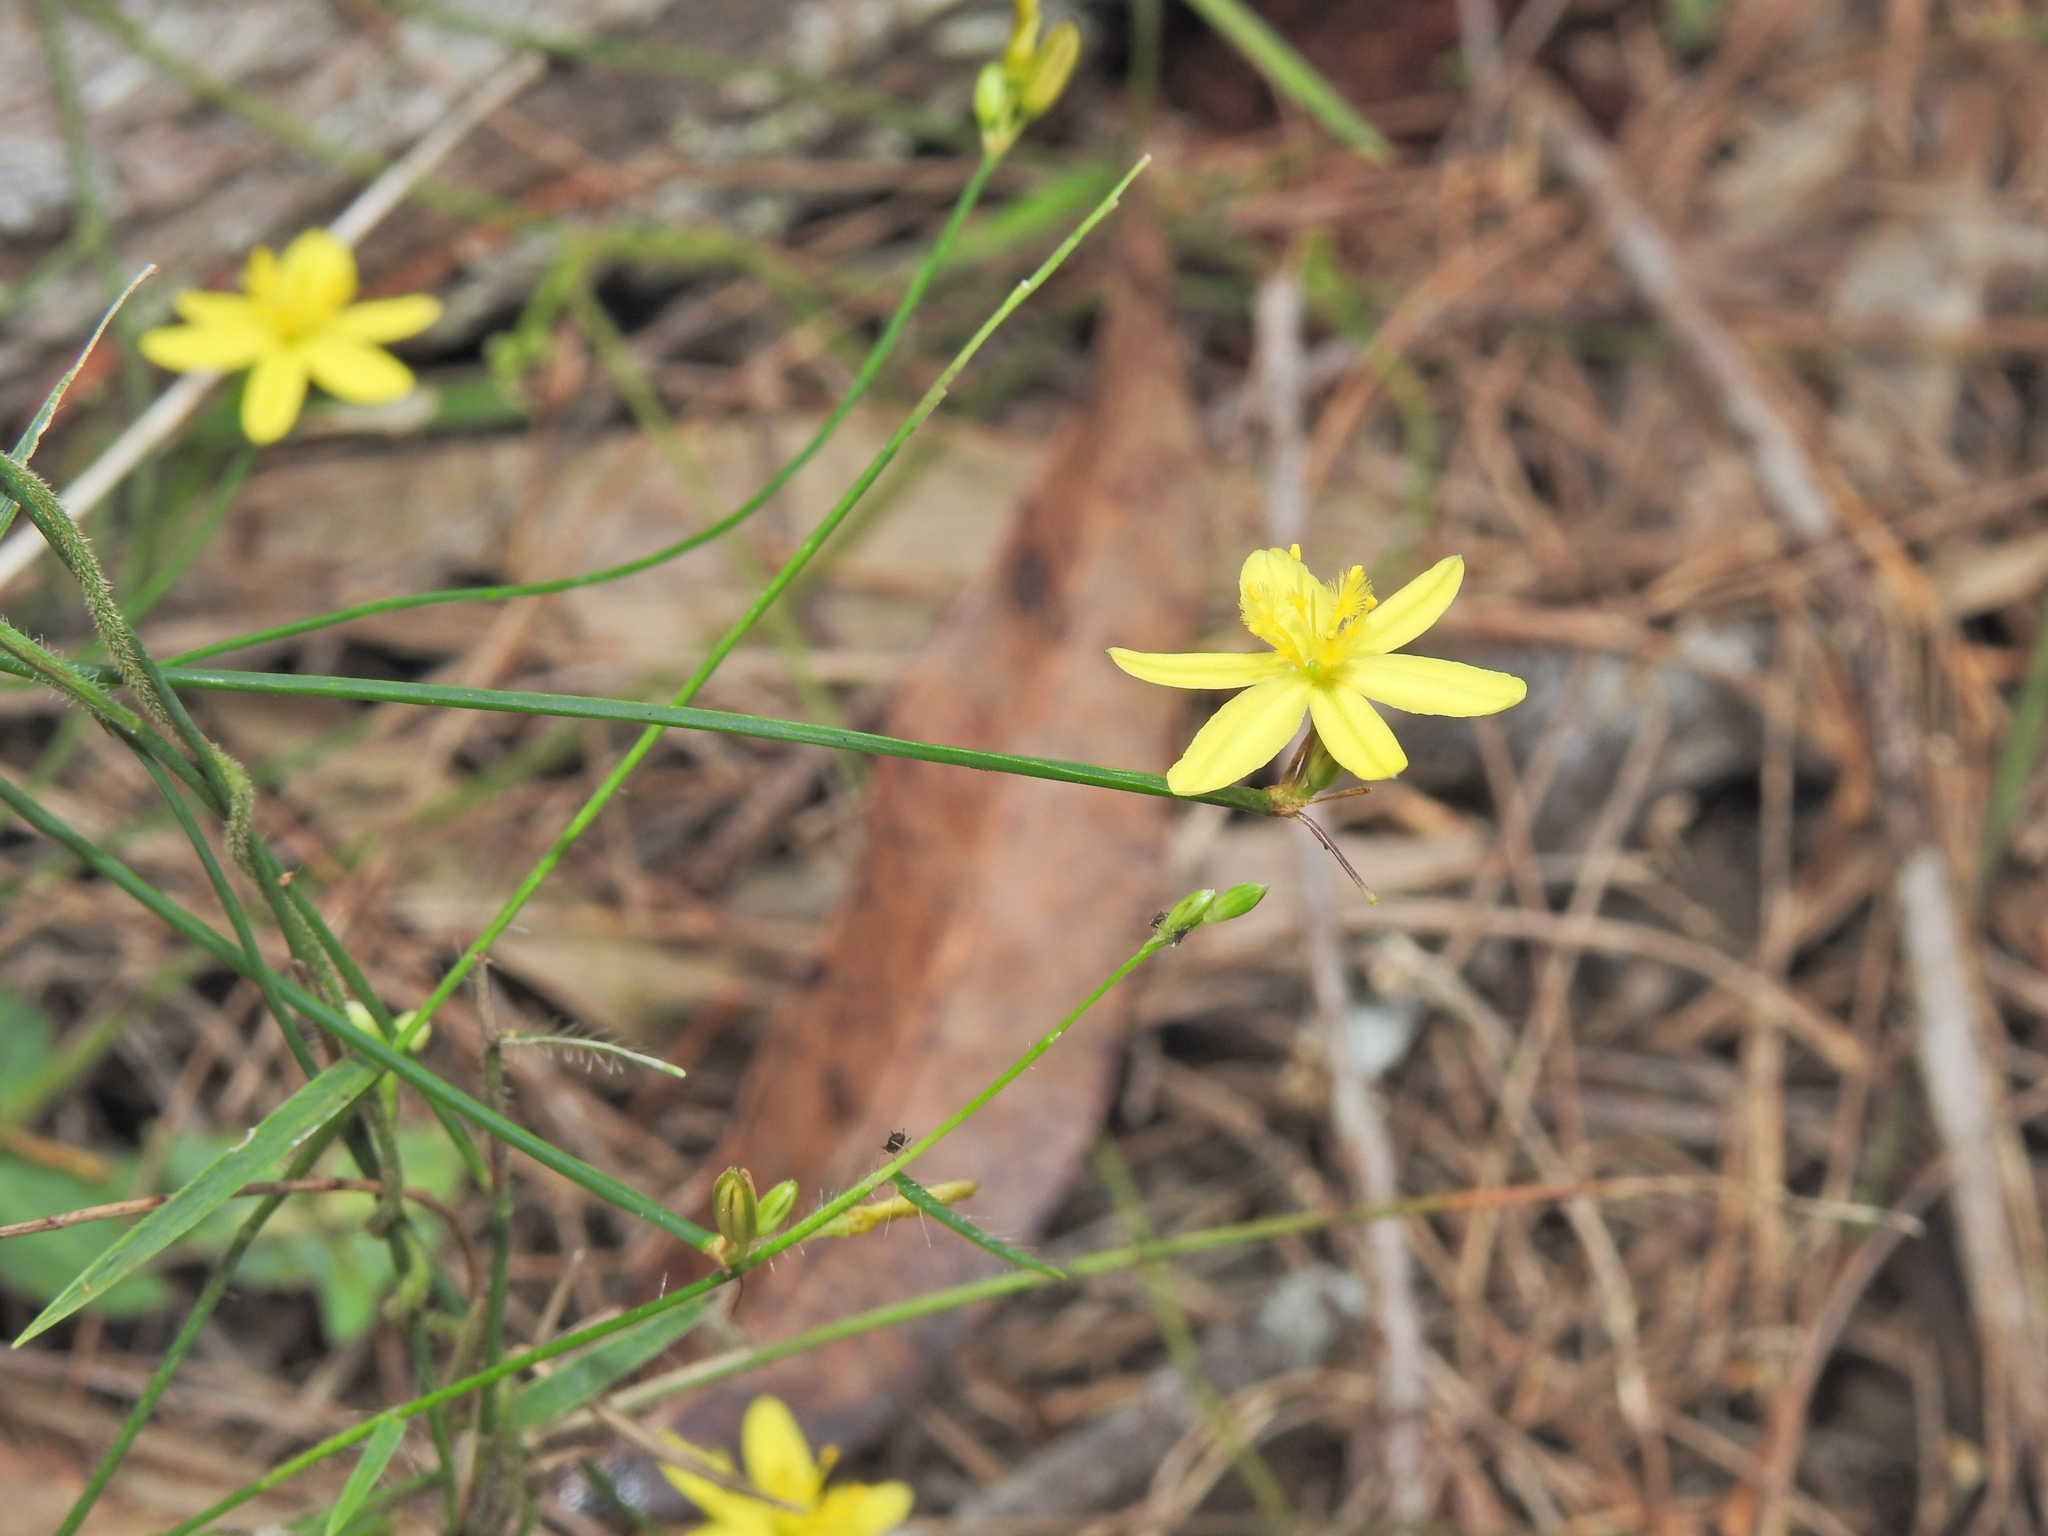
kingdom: Plantae
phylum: Tracheophyta
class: Liliopsida
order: Asparagales
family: Asphodelaceae
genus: Tricoryne
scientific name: Tricoryne elatior
